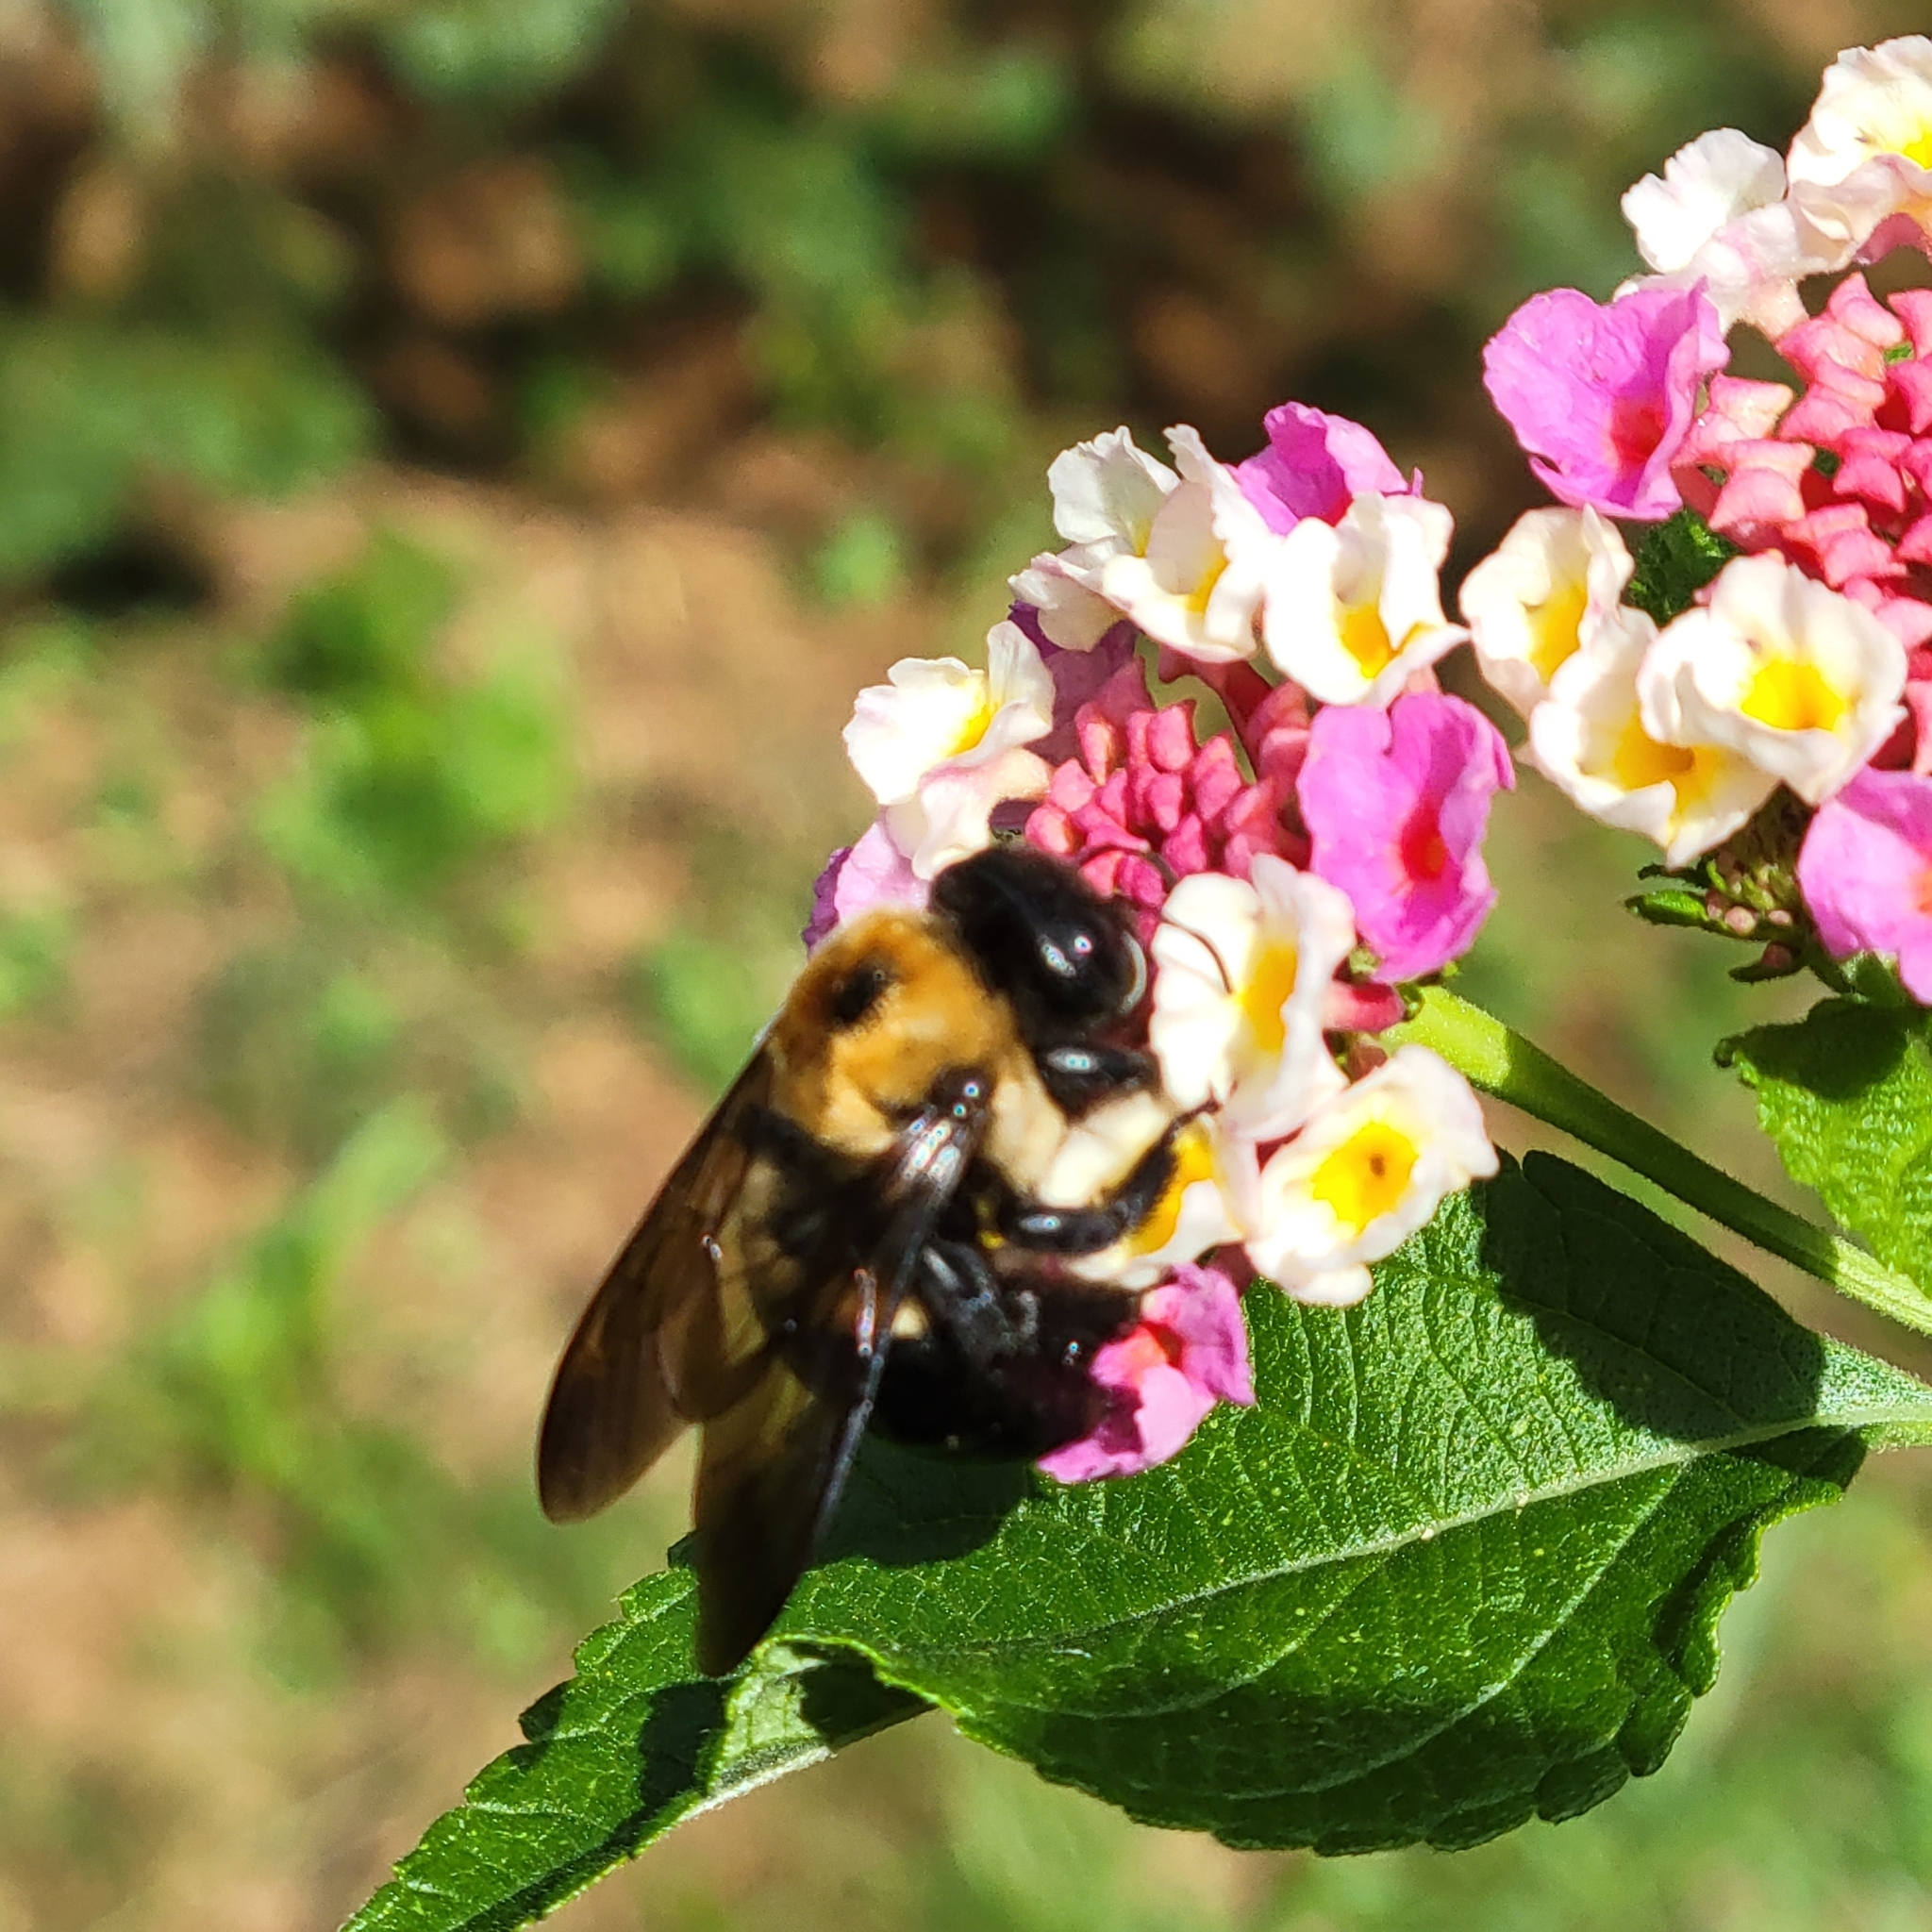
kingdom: Animalia
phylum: Arthropoda
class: Insecta
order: Hymenoptera
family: Apidae
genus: Xylocopa
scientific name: Xylocopa virginica
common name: Carpenter bee
